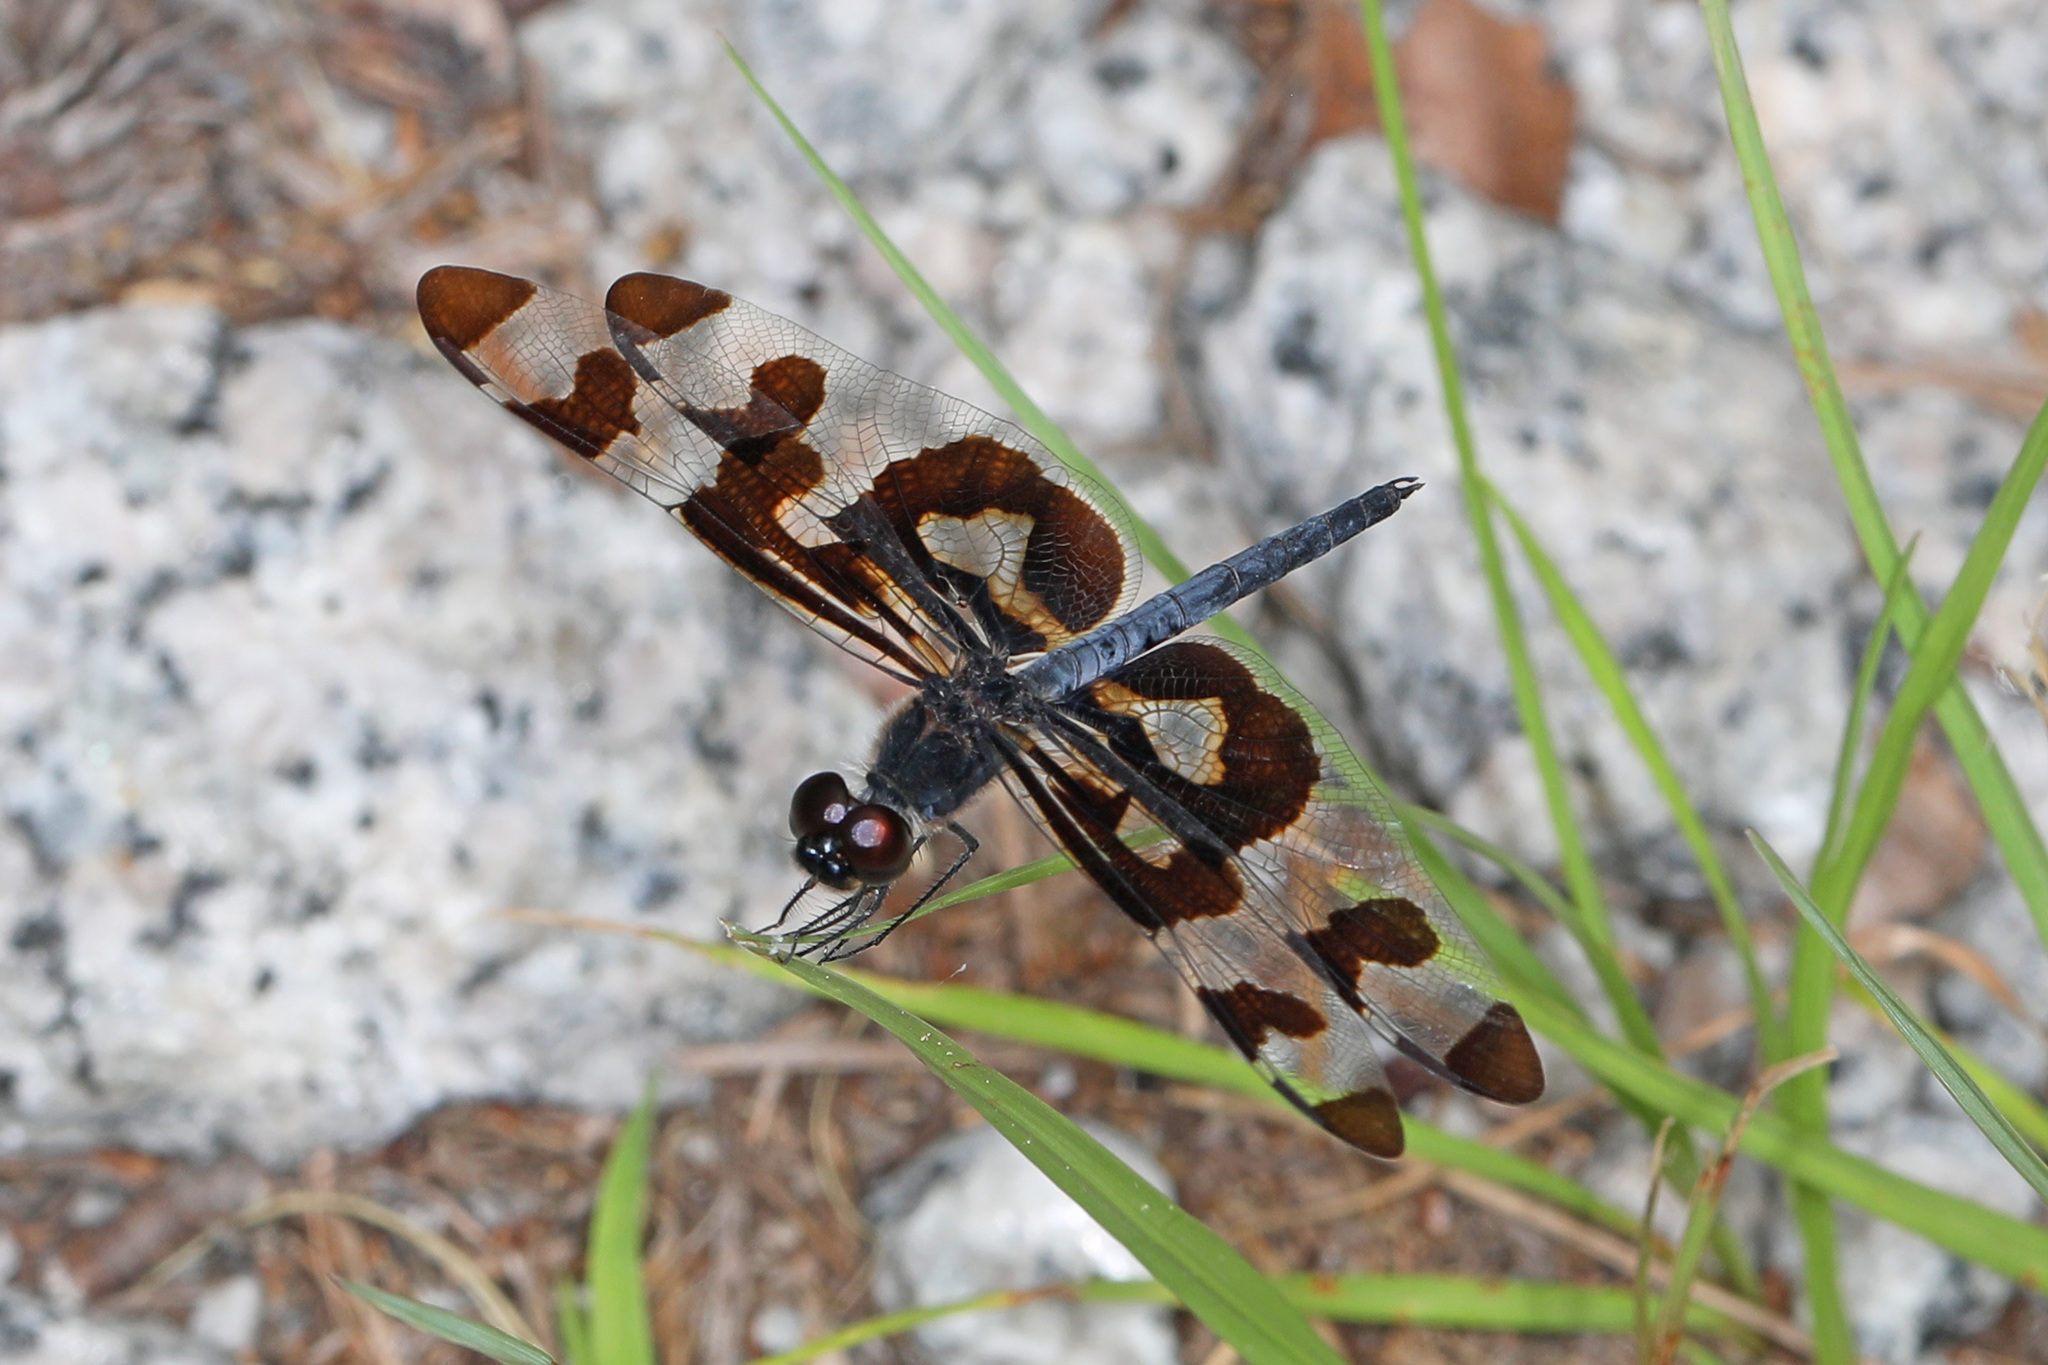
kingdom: Animalia
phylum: Arthropoda
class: Insecta
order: Odonata
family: Libellulidae
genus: Celithemis
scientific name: Celithemis fasciata
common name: Banded pennant
